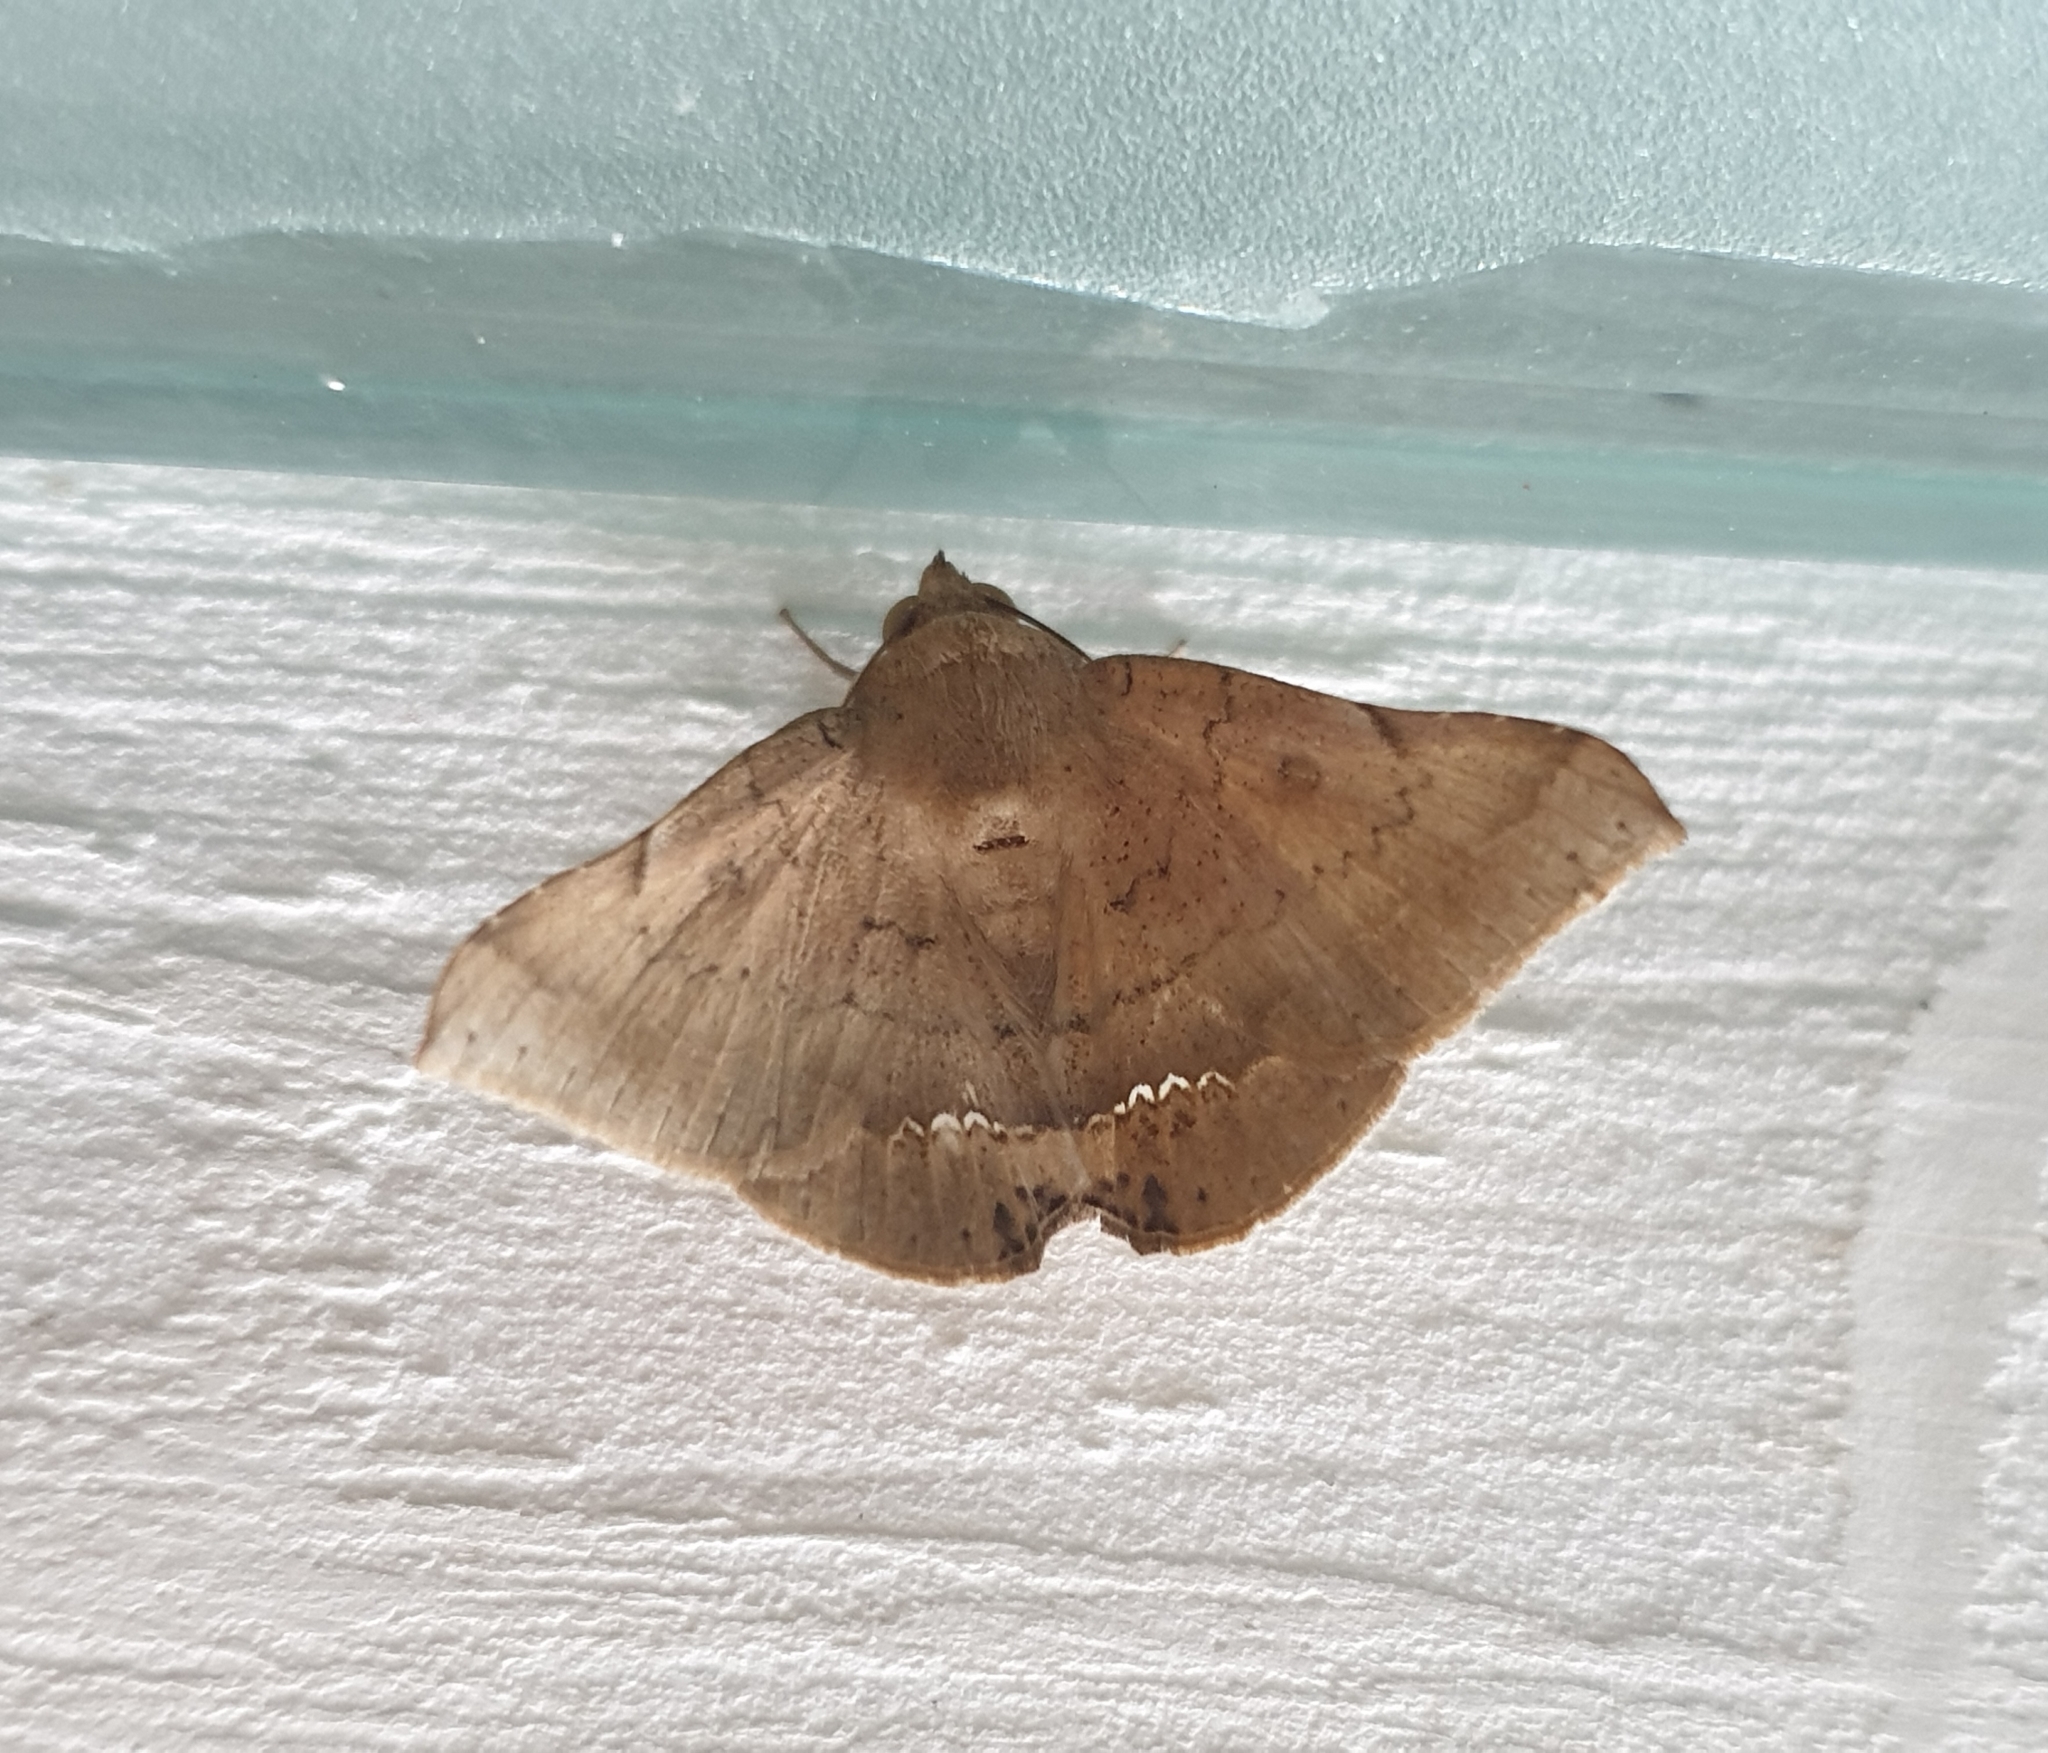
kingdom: Animalia
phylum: Arthropoda
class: Insecta
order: Lepidoptera
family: Erebidae
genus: Macaldenia
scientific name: Macaldenia palumba
